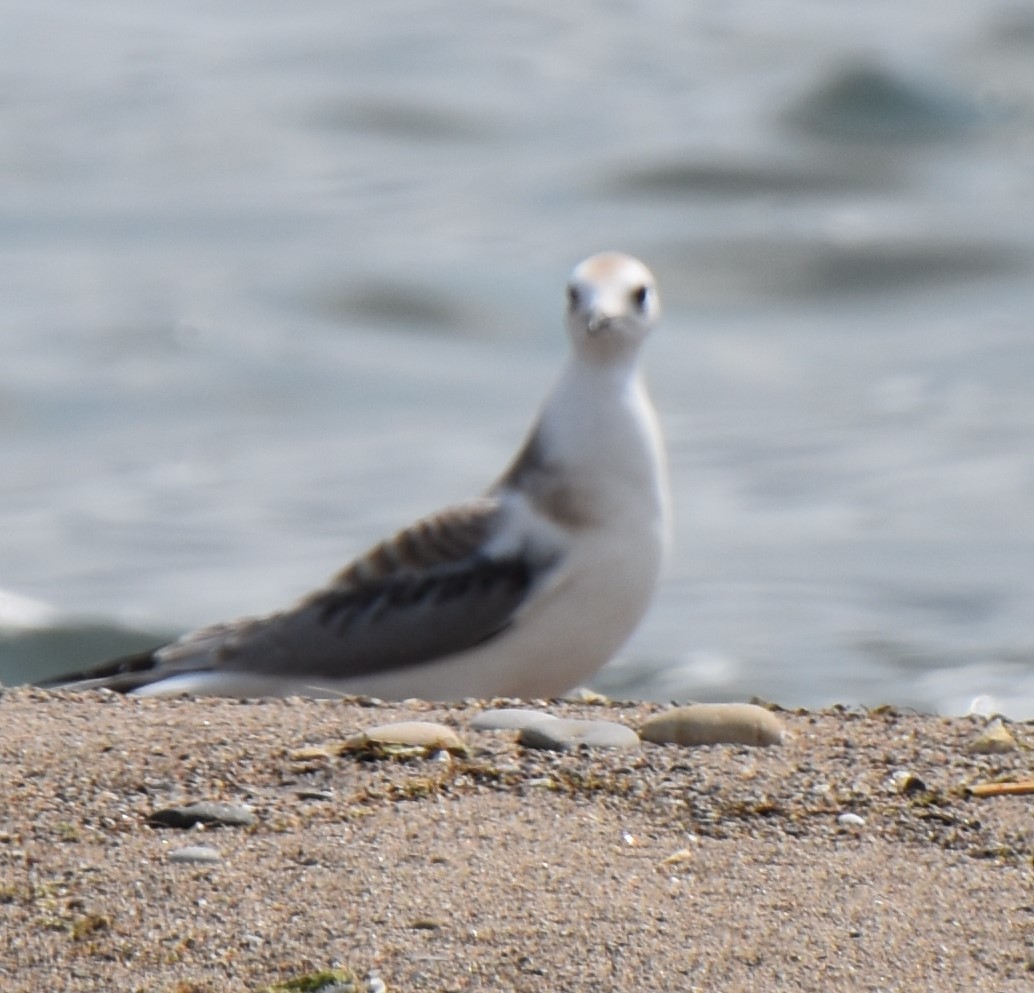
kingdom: Animalia
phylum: Chordata
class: Aves
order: Charadriiformes
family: Laridae
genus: Chroicocephalus
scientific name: Chroicocephalus philadelphia
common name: Bonaparte's gull
